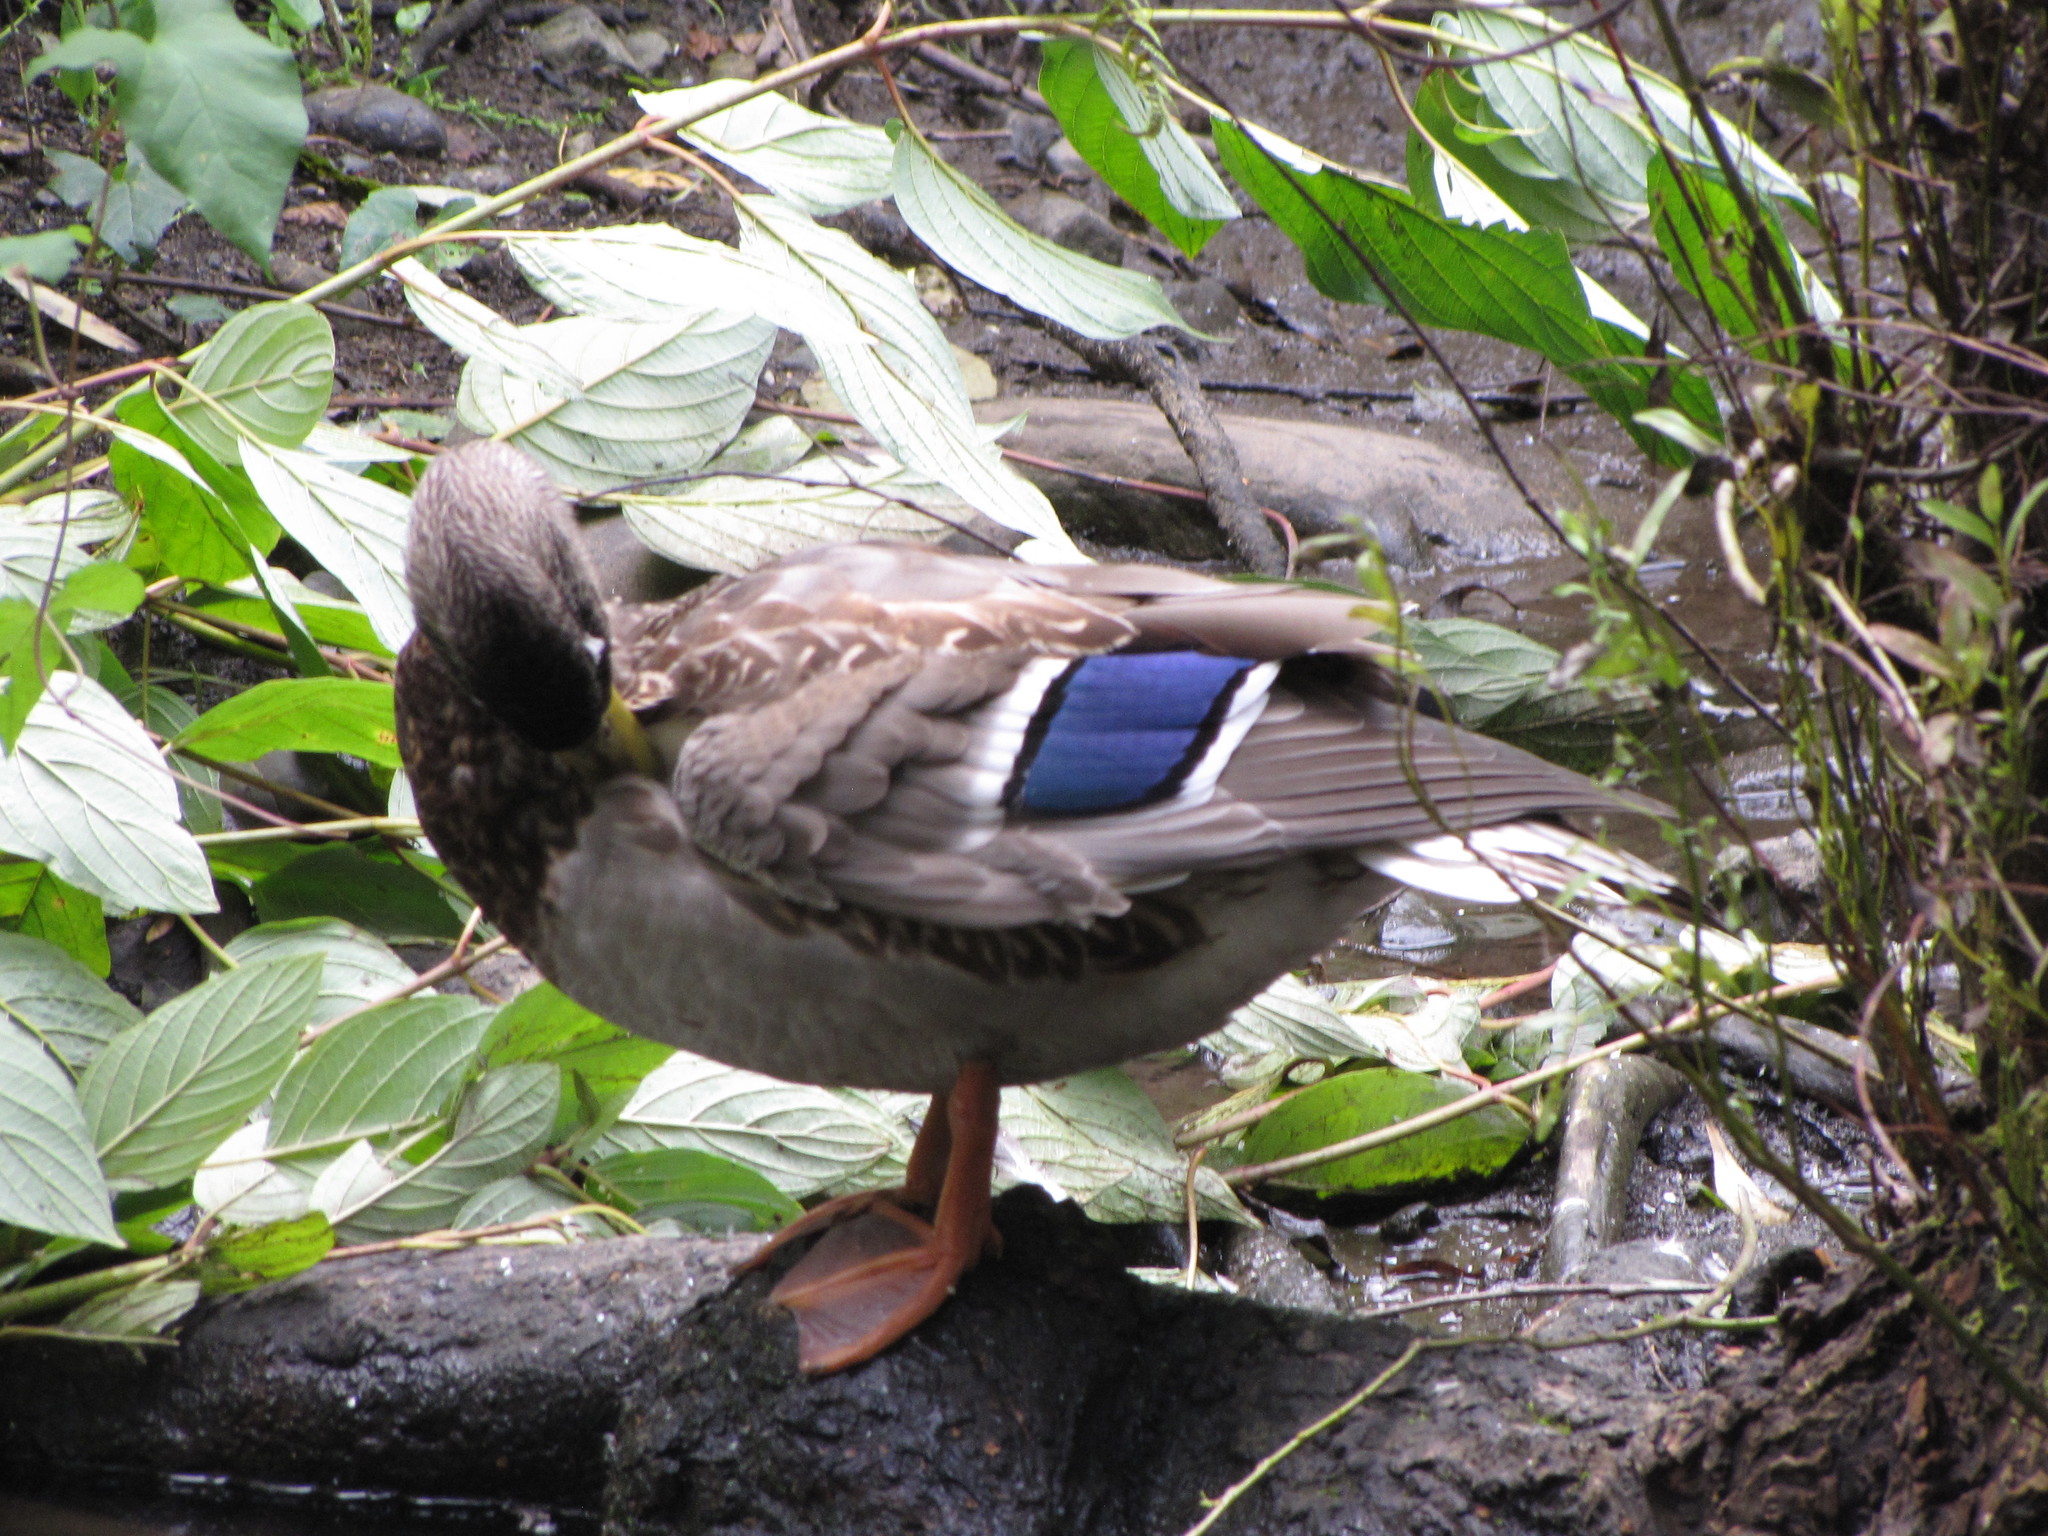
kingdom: Animalia
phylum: Chordata
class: Aves
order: Anseriformes
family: Anatidae
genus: Anas
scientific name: Anas platyrhynchos
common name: Mallard
